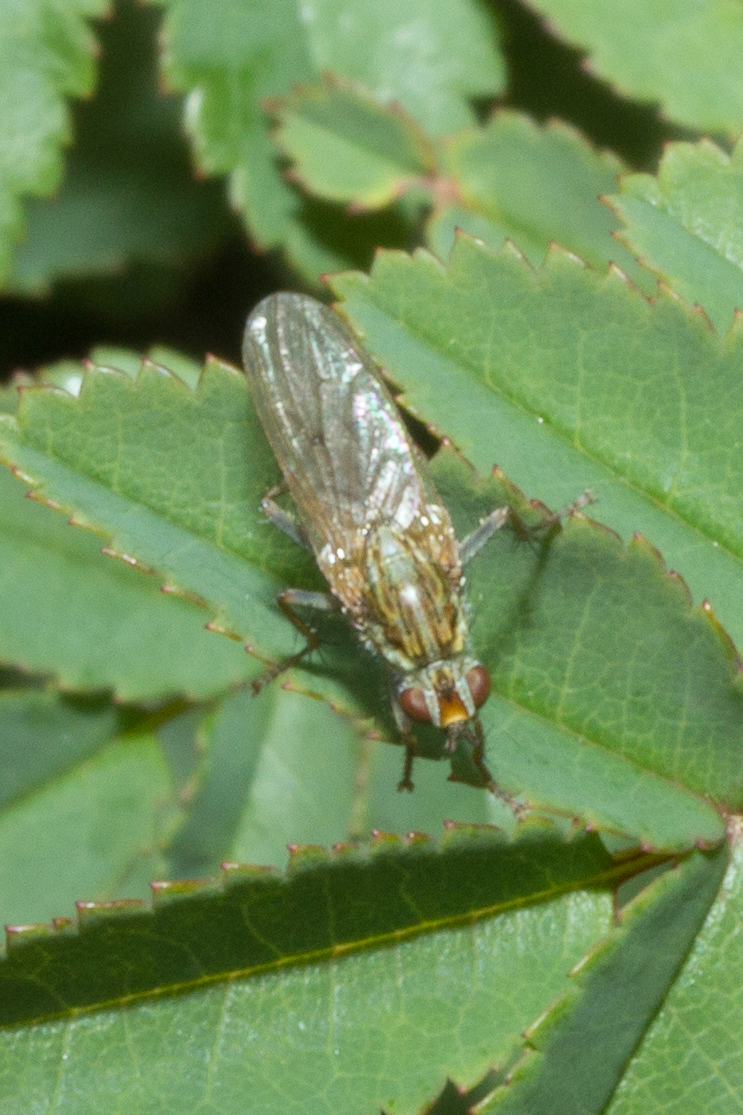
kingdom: Animalia
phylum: Arthropoda
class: Insecta
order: Diptera
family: Scathophagidae
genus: Scathophaga
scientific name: Scathophaga stercoraria
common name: Yellow dung fly
